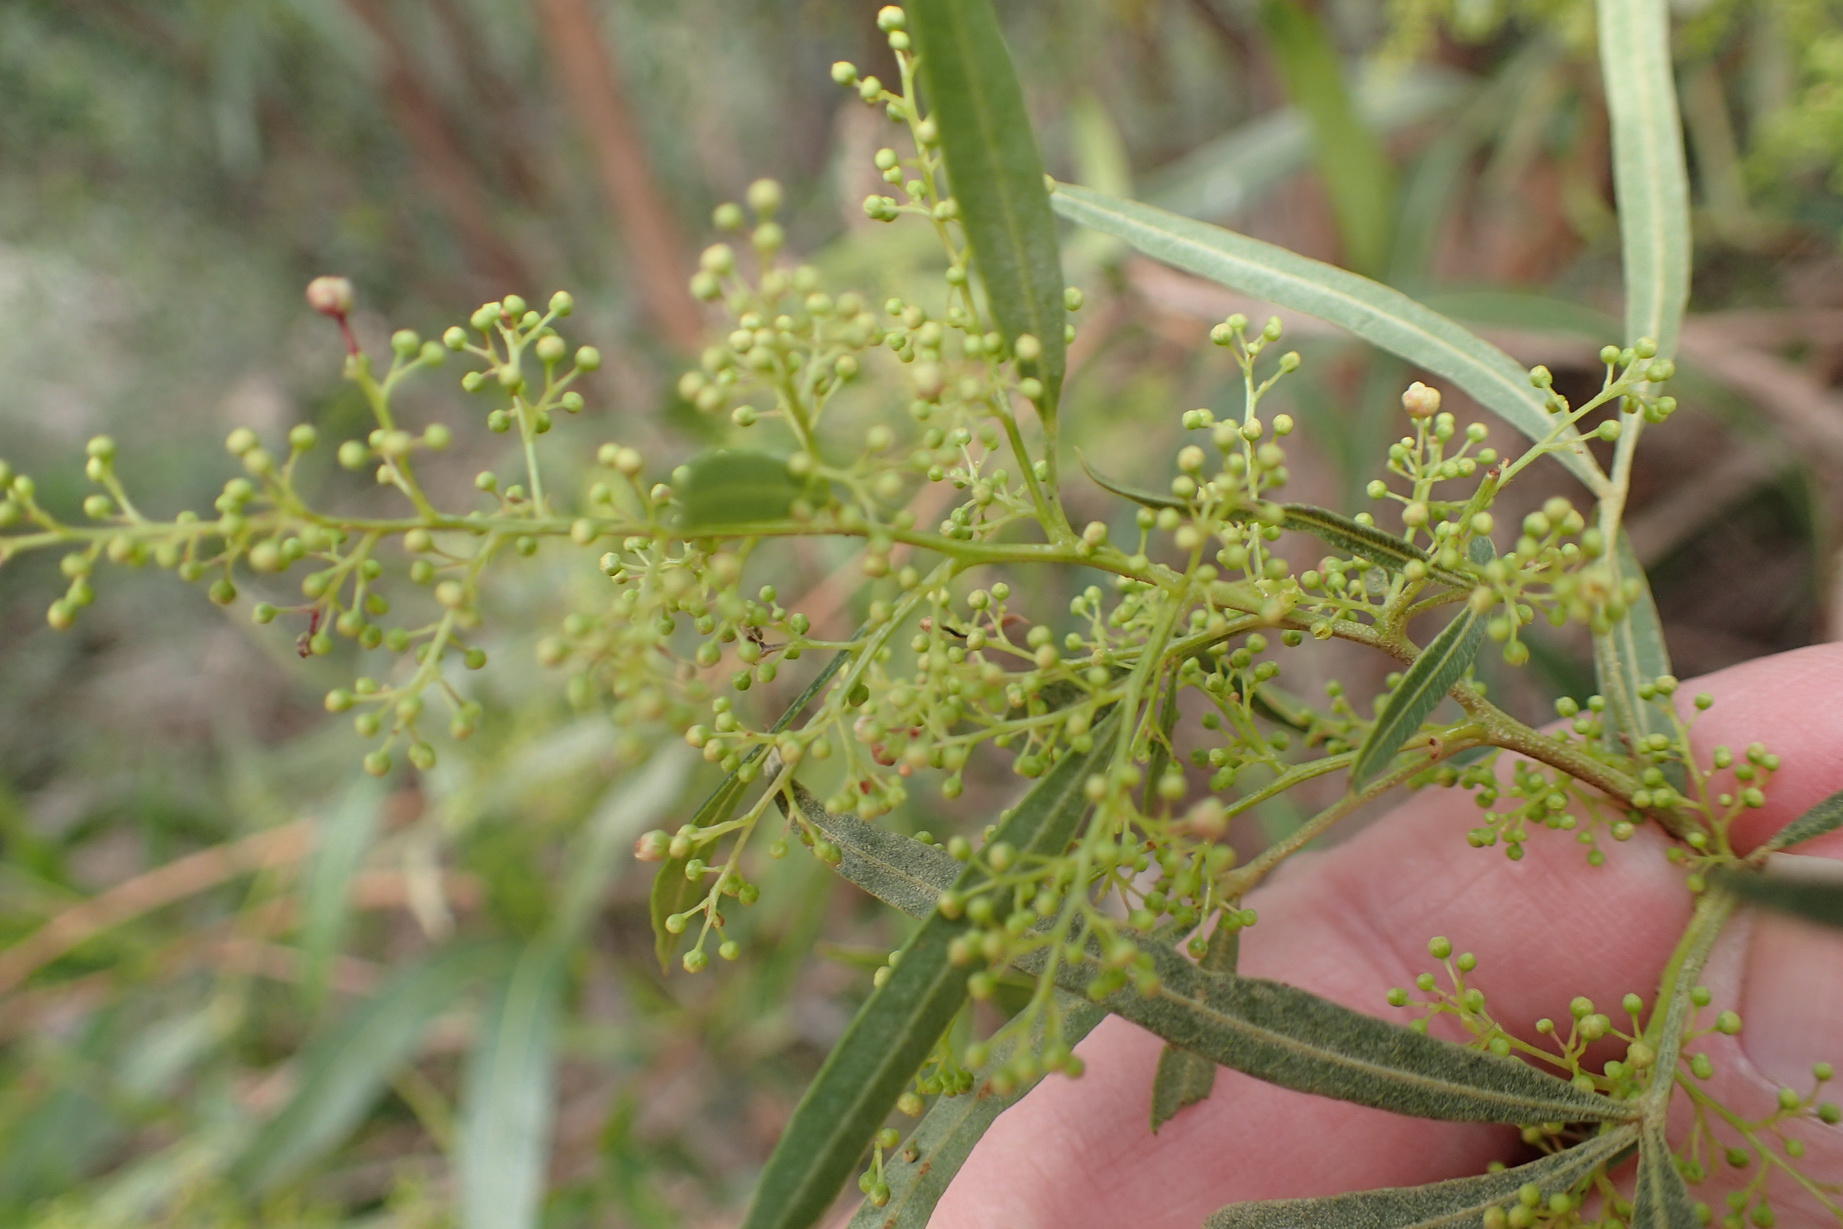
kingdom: Plantae
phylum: Tracheophyta
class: Magnoliopsida
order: Sapindales
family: Anacardiaceae
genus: Searsia
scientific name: Searsia lancea
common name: Cashew
